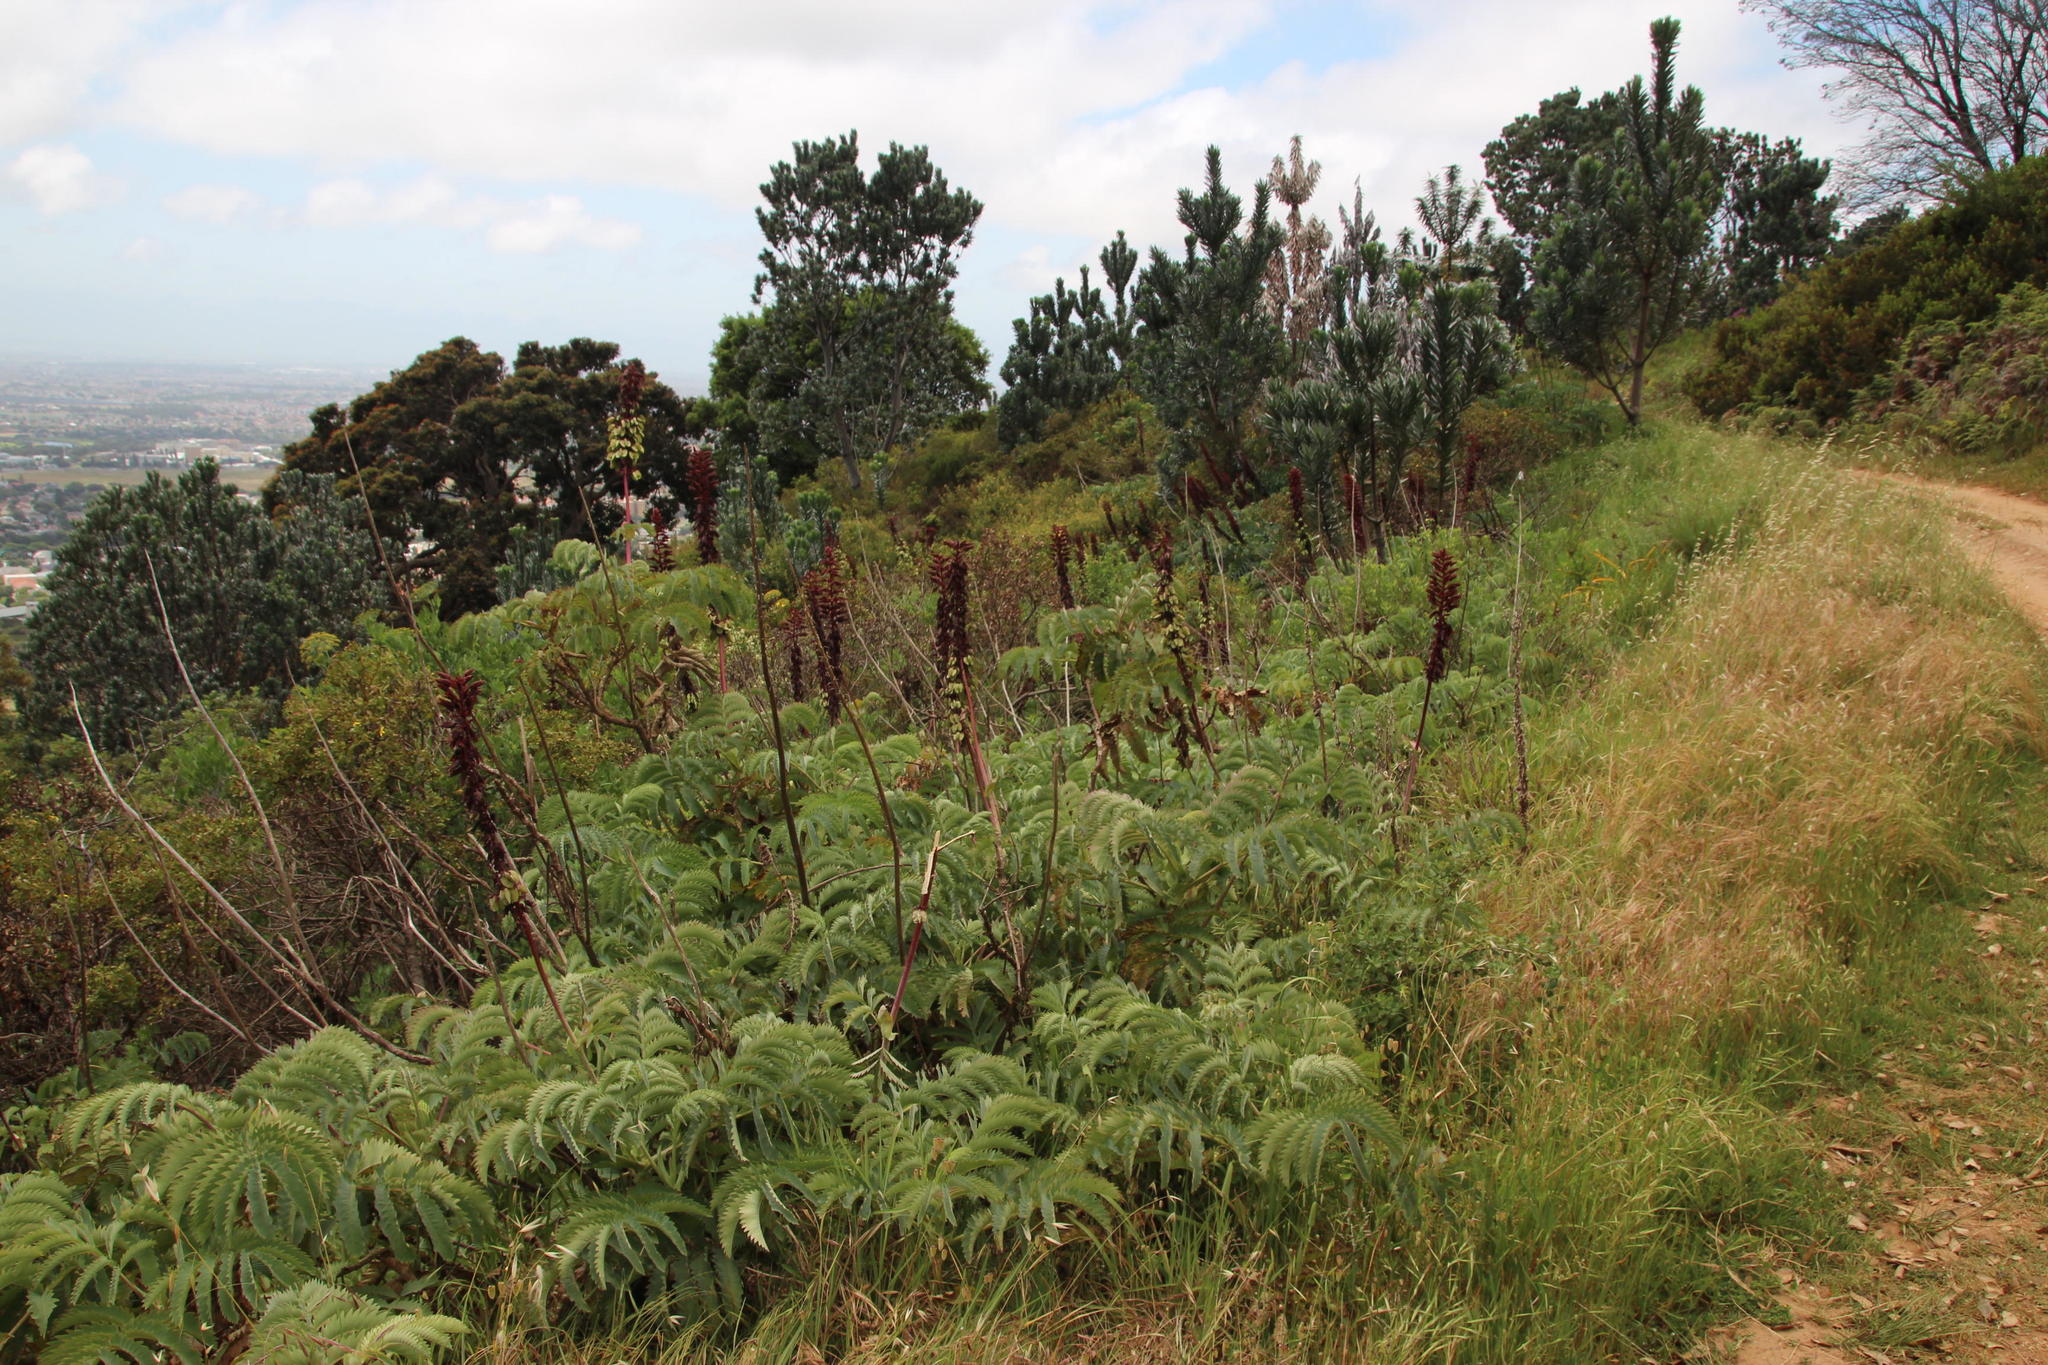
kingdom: Plantae
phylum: Tracheophyta
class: Magnoliopsida
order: Geraniales
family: Melianthaceae
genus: Melianthus
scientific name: Melianthus major
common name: Honey-flower
